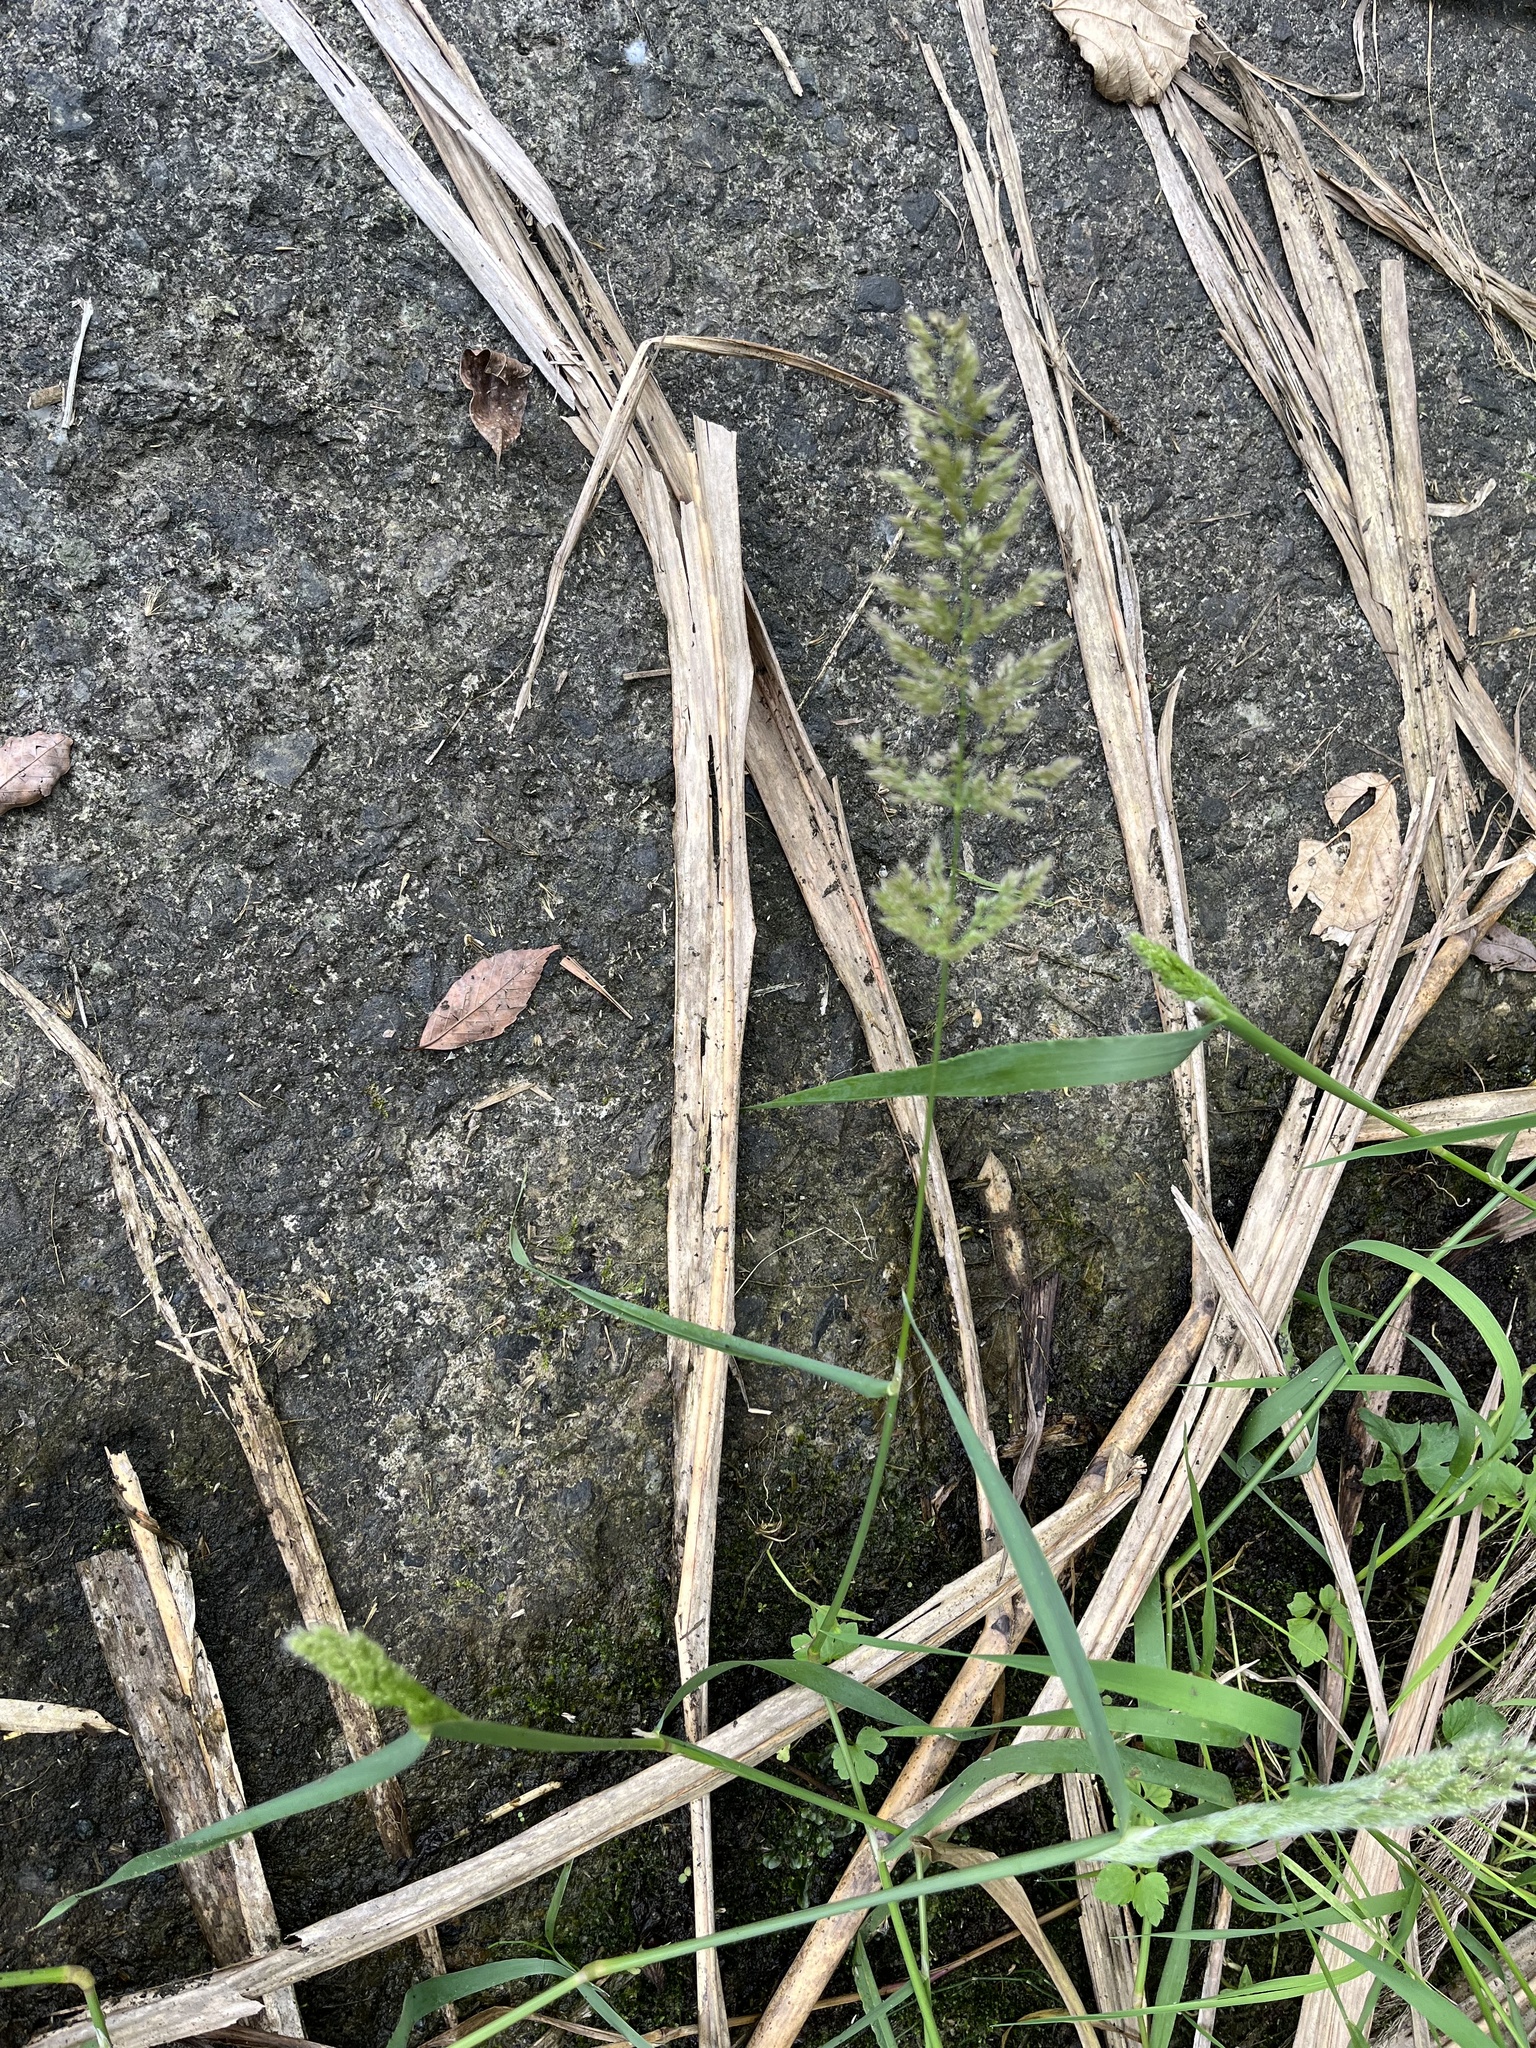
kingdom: Plantae
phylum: Tracheophyta
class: Liliopsida
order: Poales
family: Poaceae
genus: Polypogon
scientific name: Polypogon fugax
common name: Asia minor bluegrass
